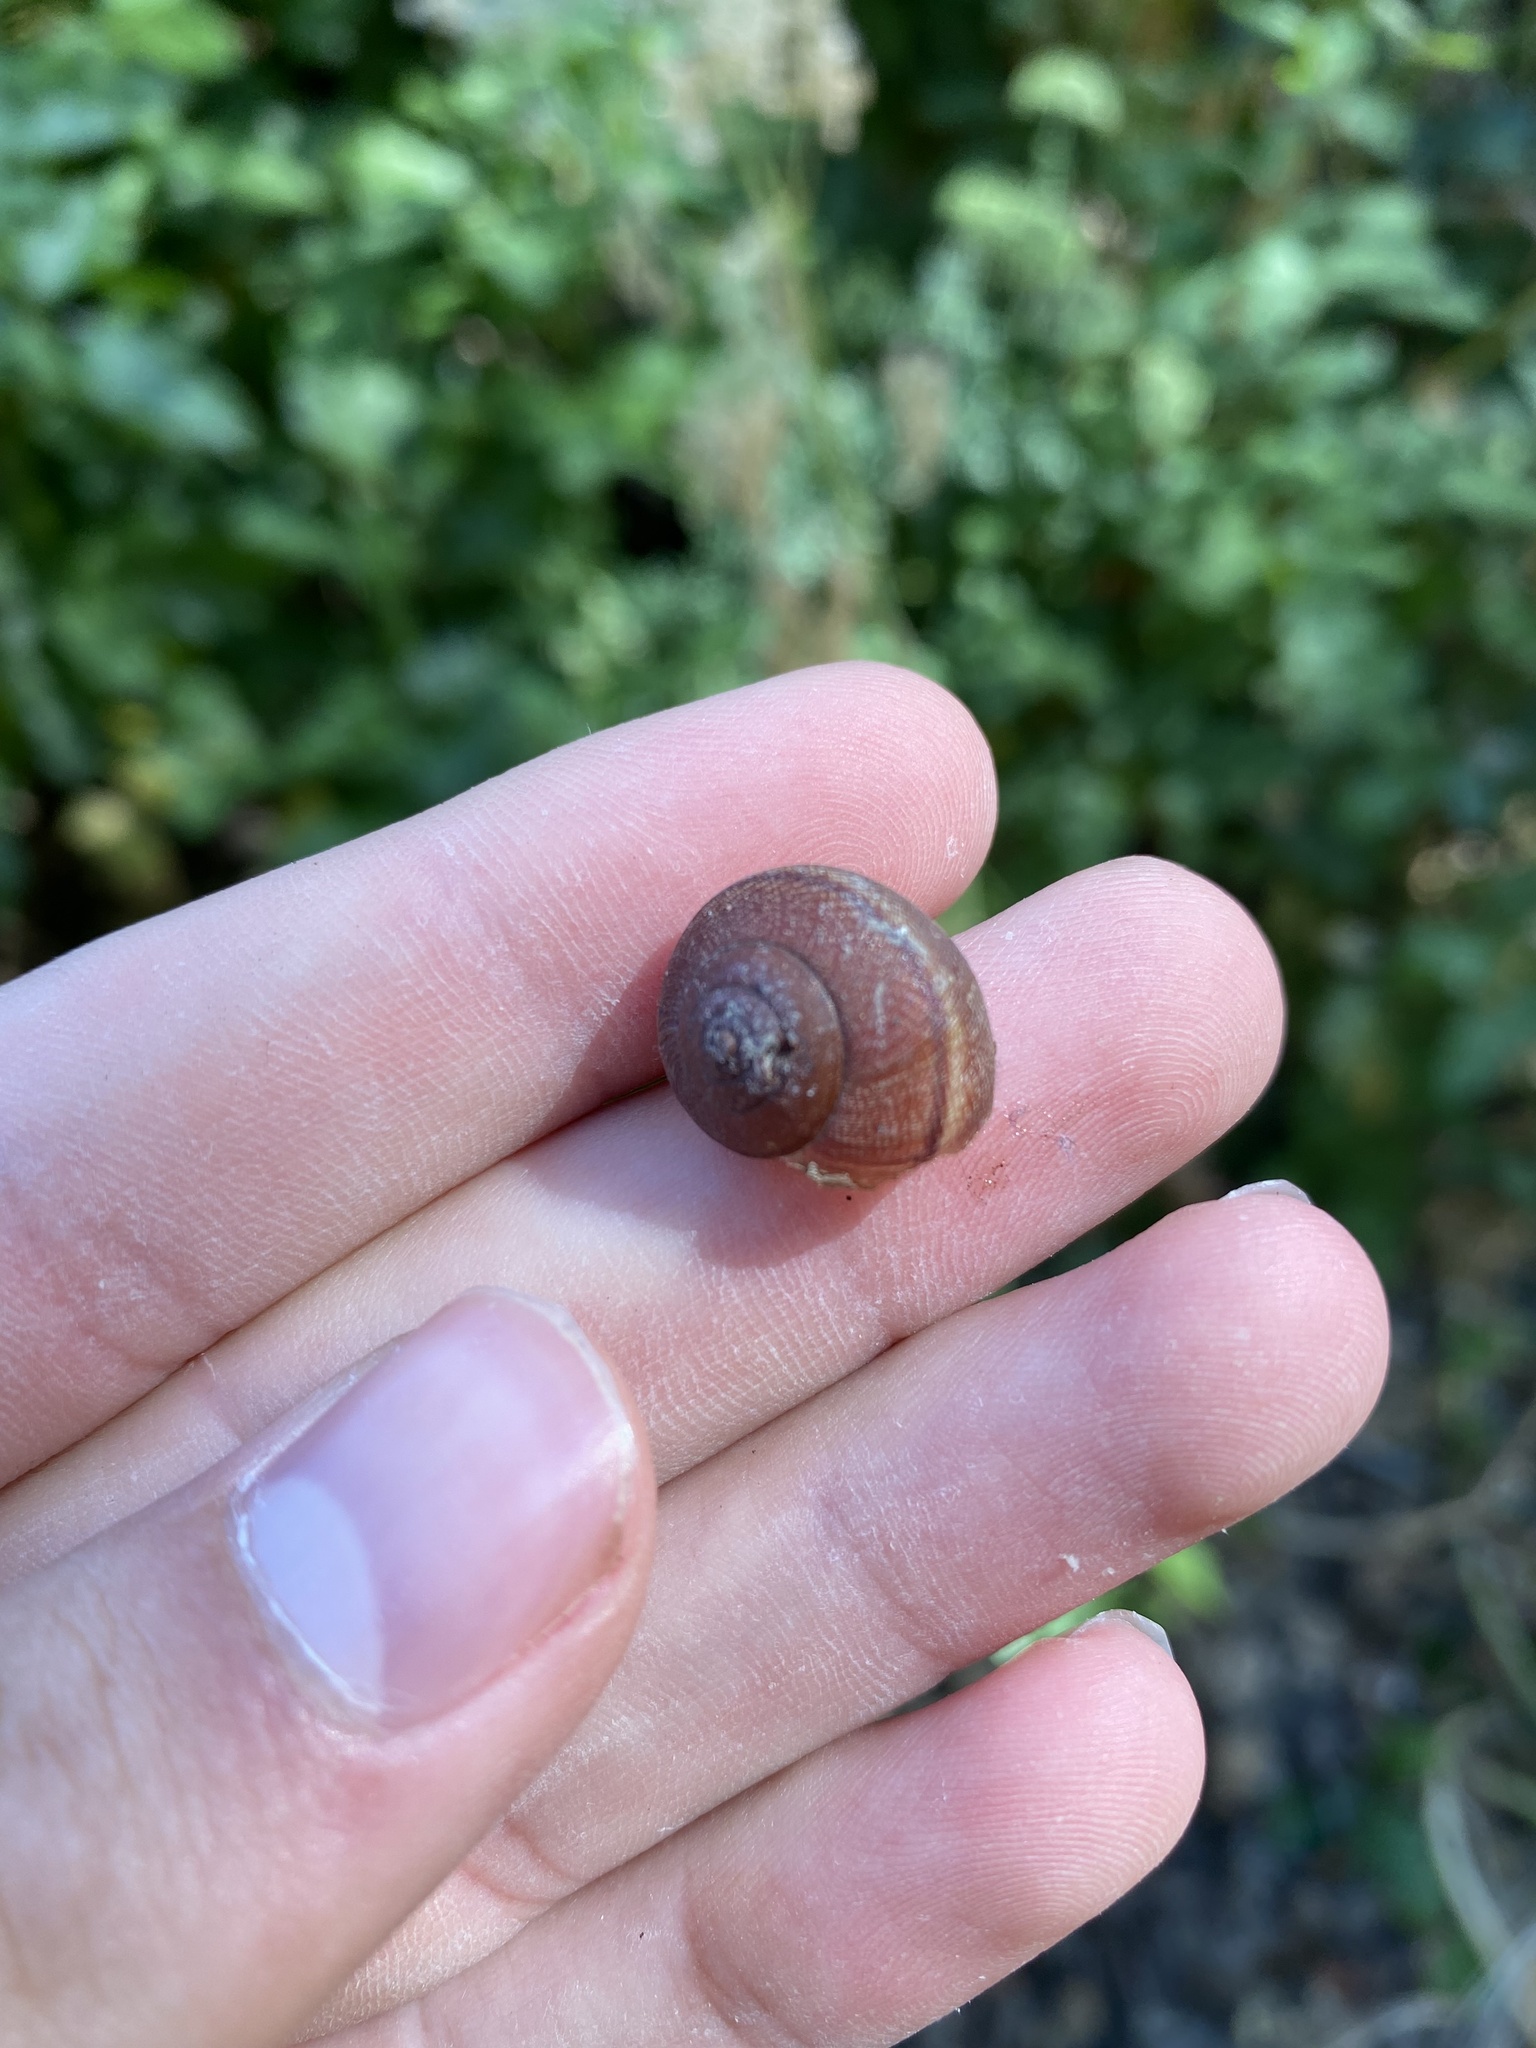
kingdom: Animalia
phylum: Mollusca
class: Gastropoda
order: Stylommatophora
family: Xanthonychidae
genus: Helminthoglypta
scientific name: Helminthoglypta nickliniana
